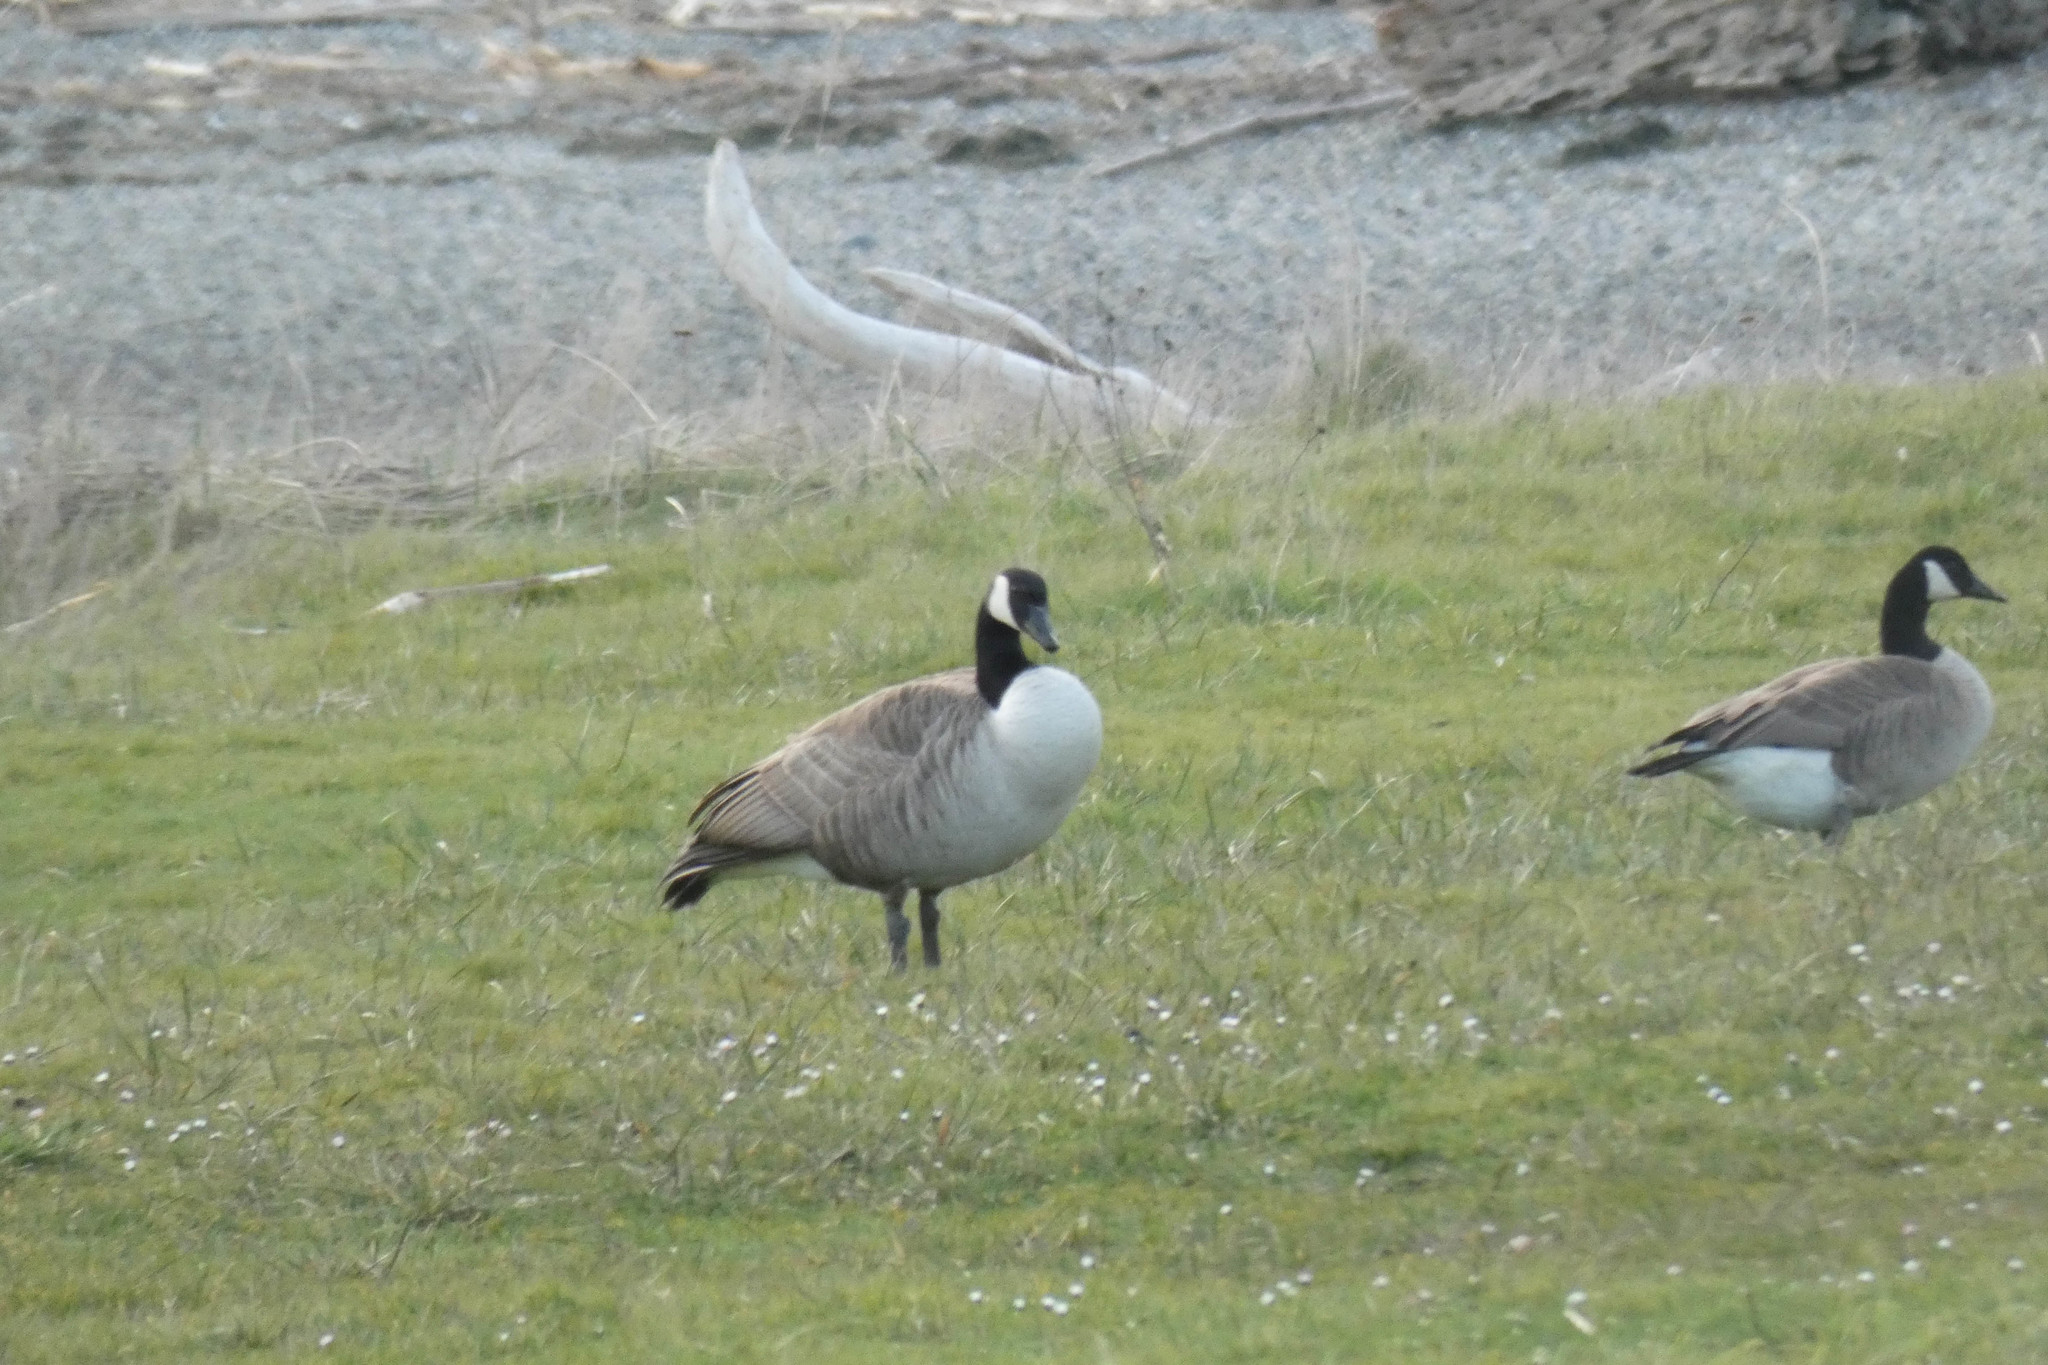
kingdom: Animalia
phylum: Chordata
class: Aves
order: Anseriformes
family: Anatidae
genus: Branta
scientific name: Branta canadensis
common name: Canada goose
